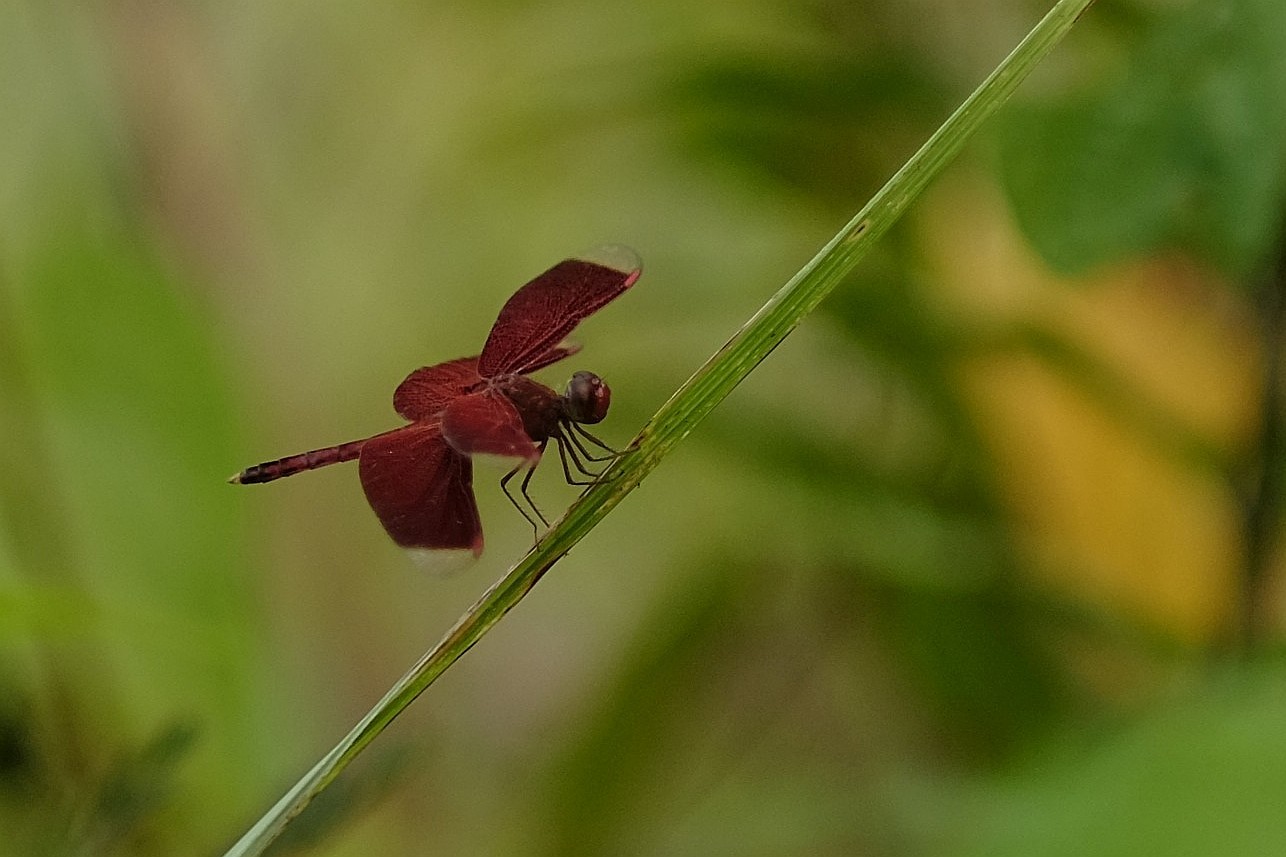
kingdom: Animalia
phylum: Arthropoda
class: Insecta
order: Odonata
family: Libellulidae
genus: Neurothemis
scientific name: Neurothemis terminata
